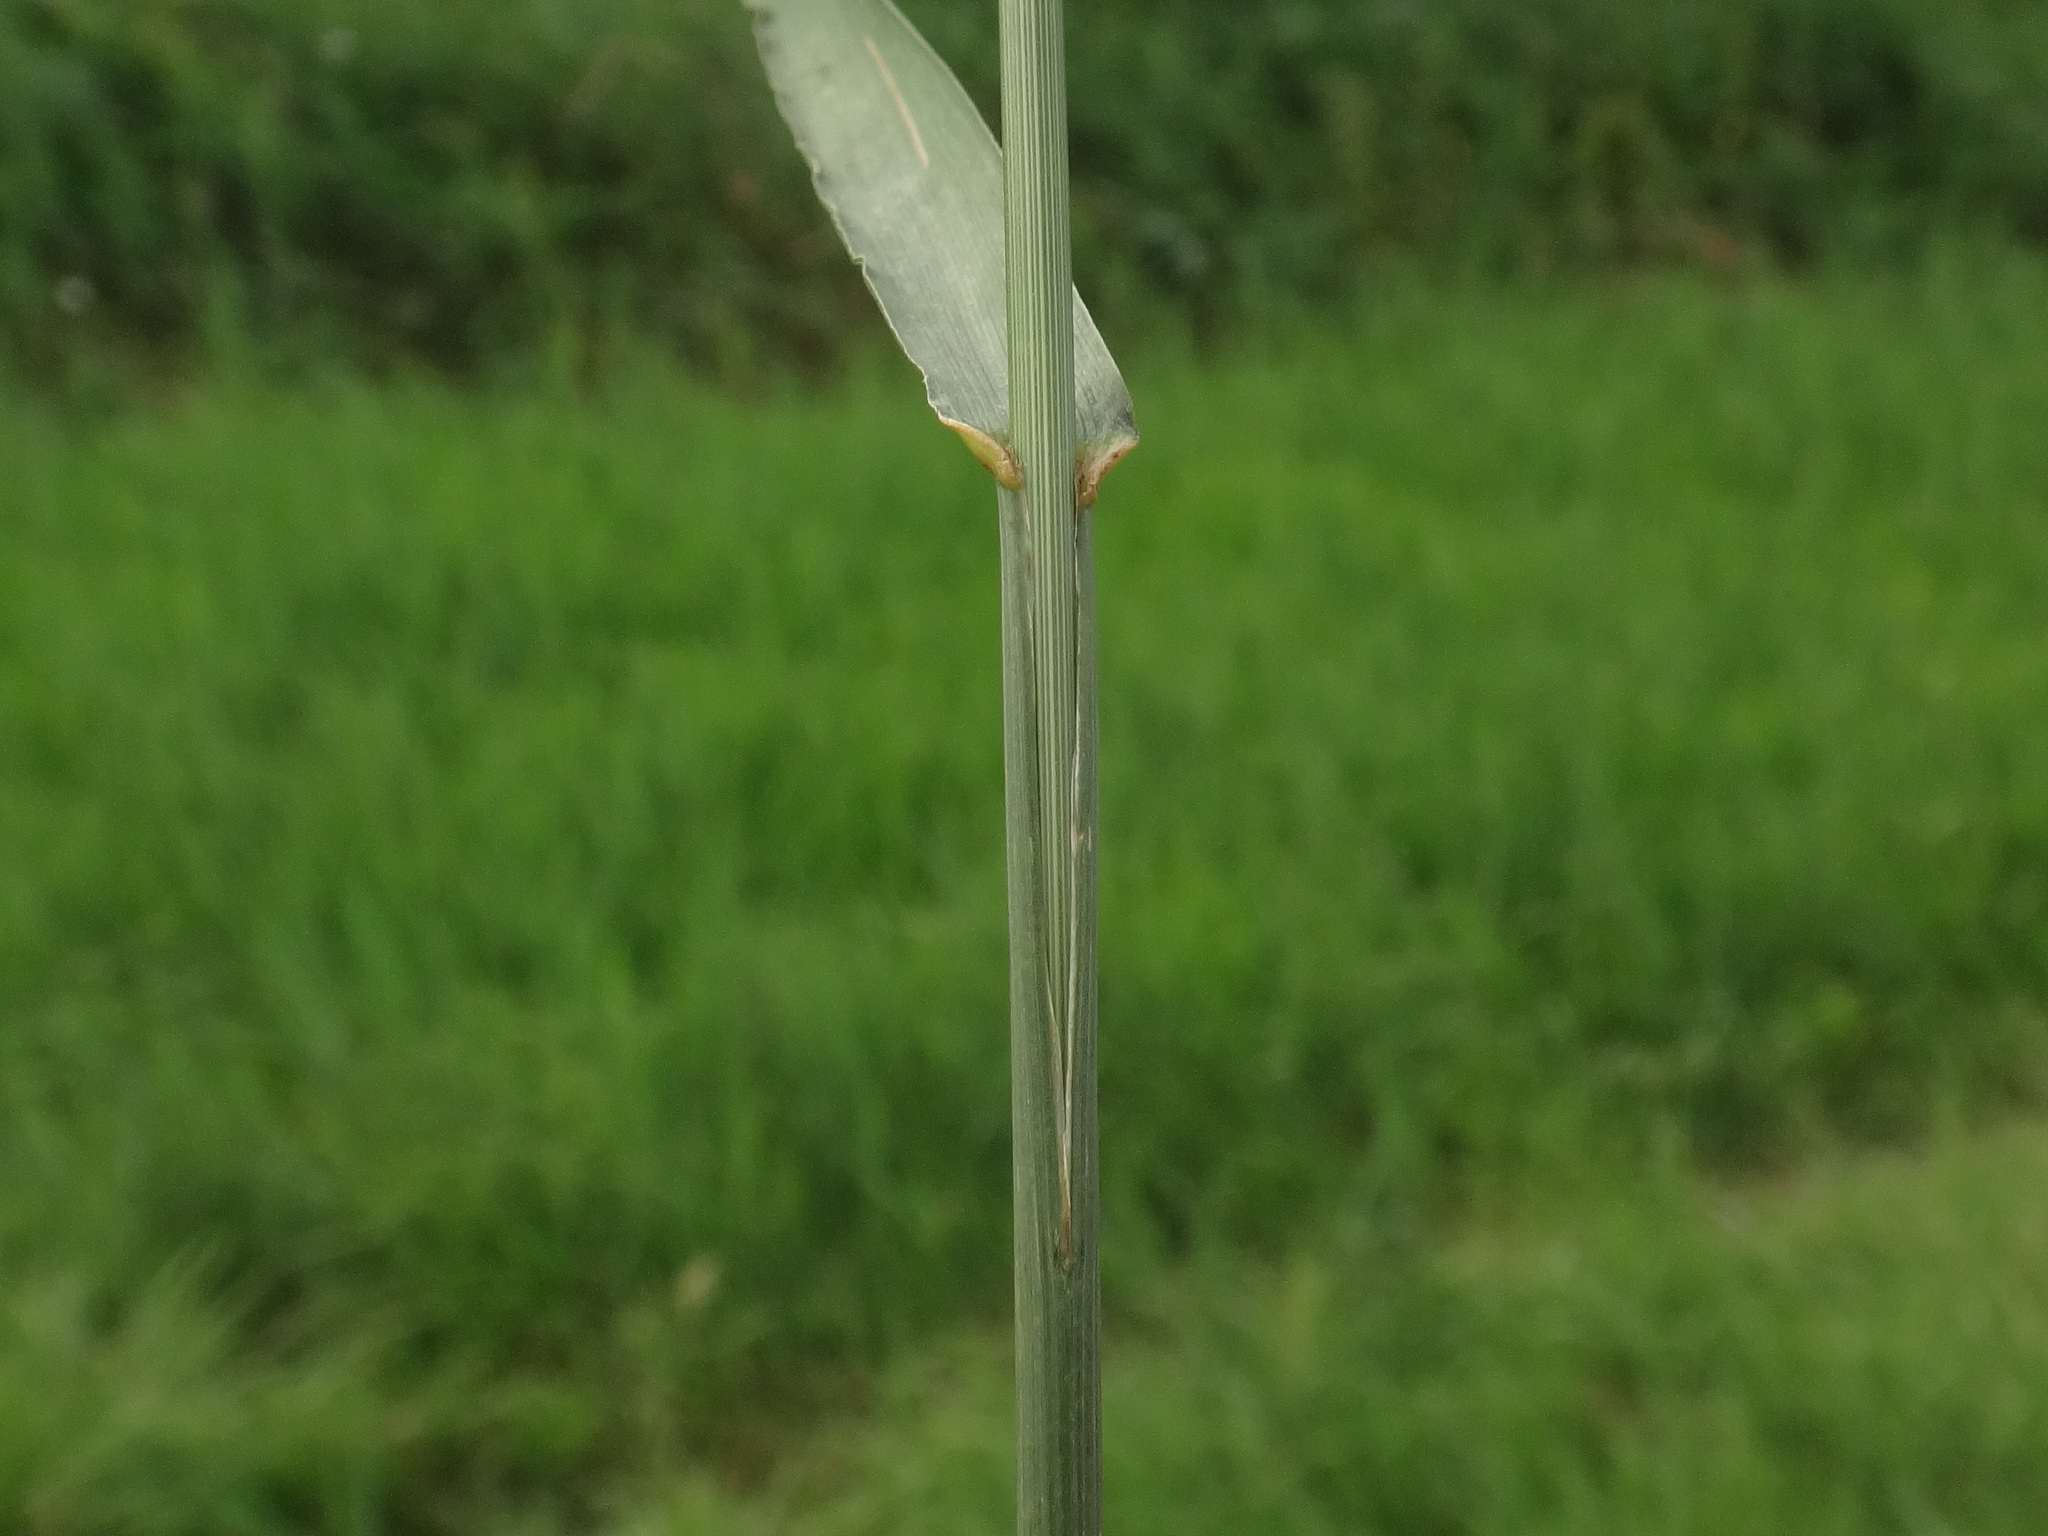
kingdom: Plantae
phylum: Tracheophyta
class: Liliopsida
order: Poales
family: Poaceae
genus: Bromus
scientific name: Bromus inermis
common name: Smooth brome
